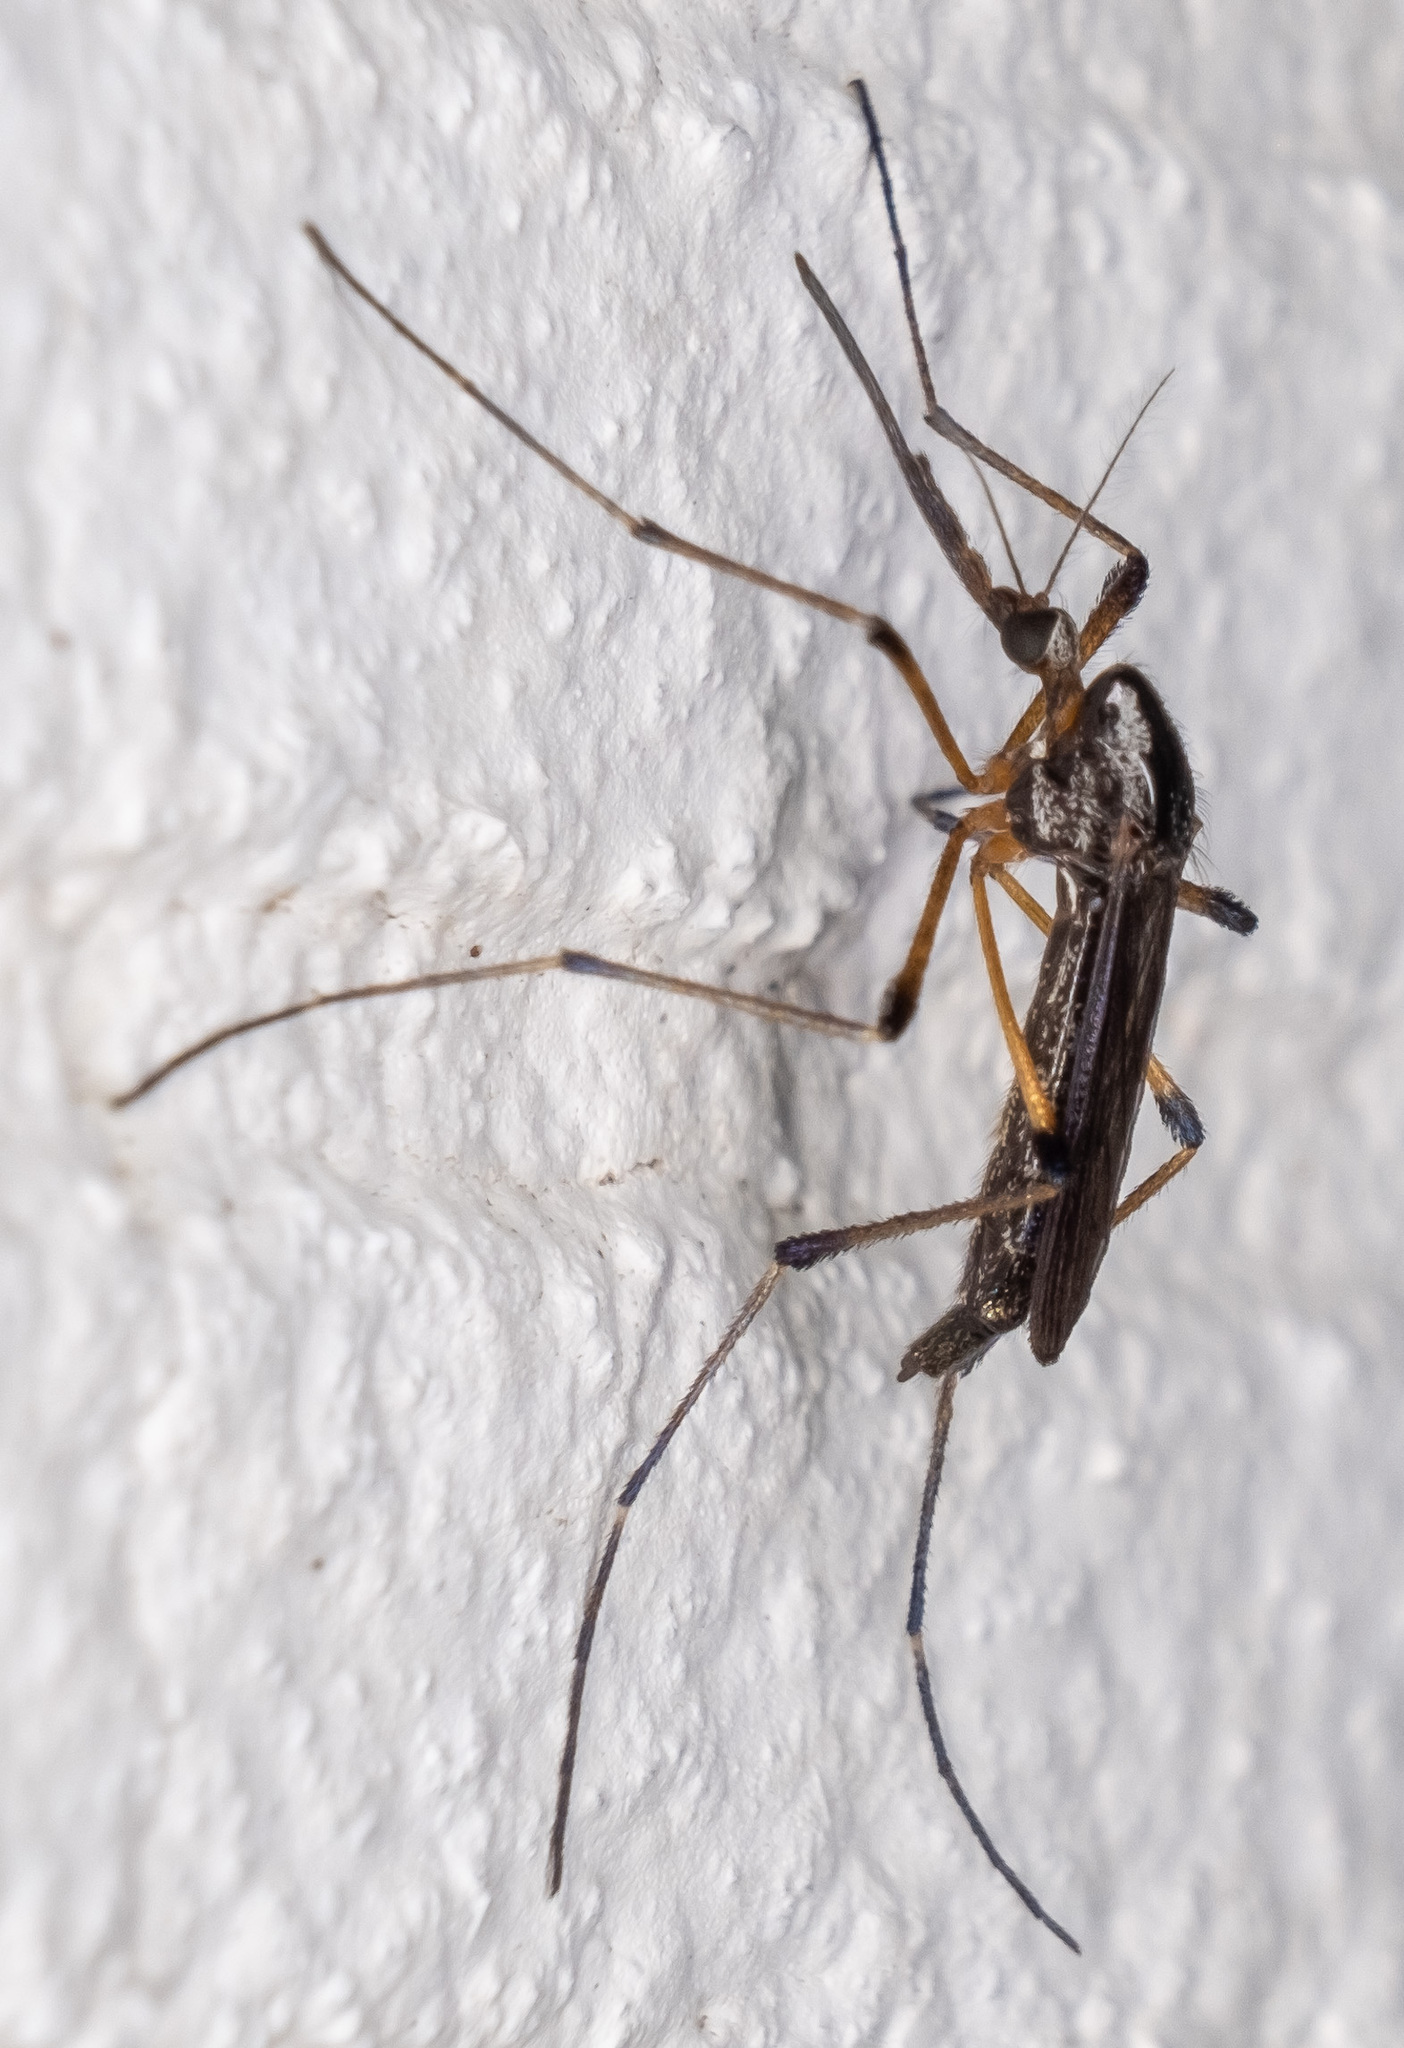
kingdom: Animalia
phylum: Arthropoda
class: Insecta
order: Diptera
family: Culicidae
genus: Psorophora
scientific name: Psorophora howardii
